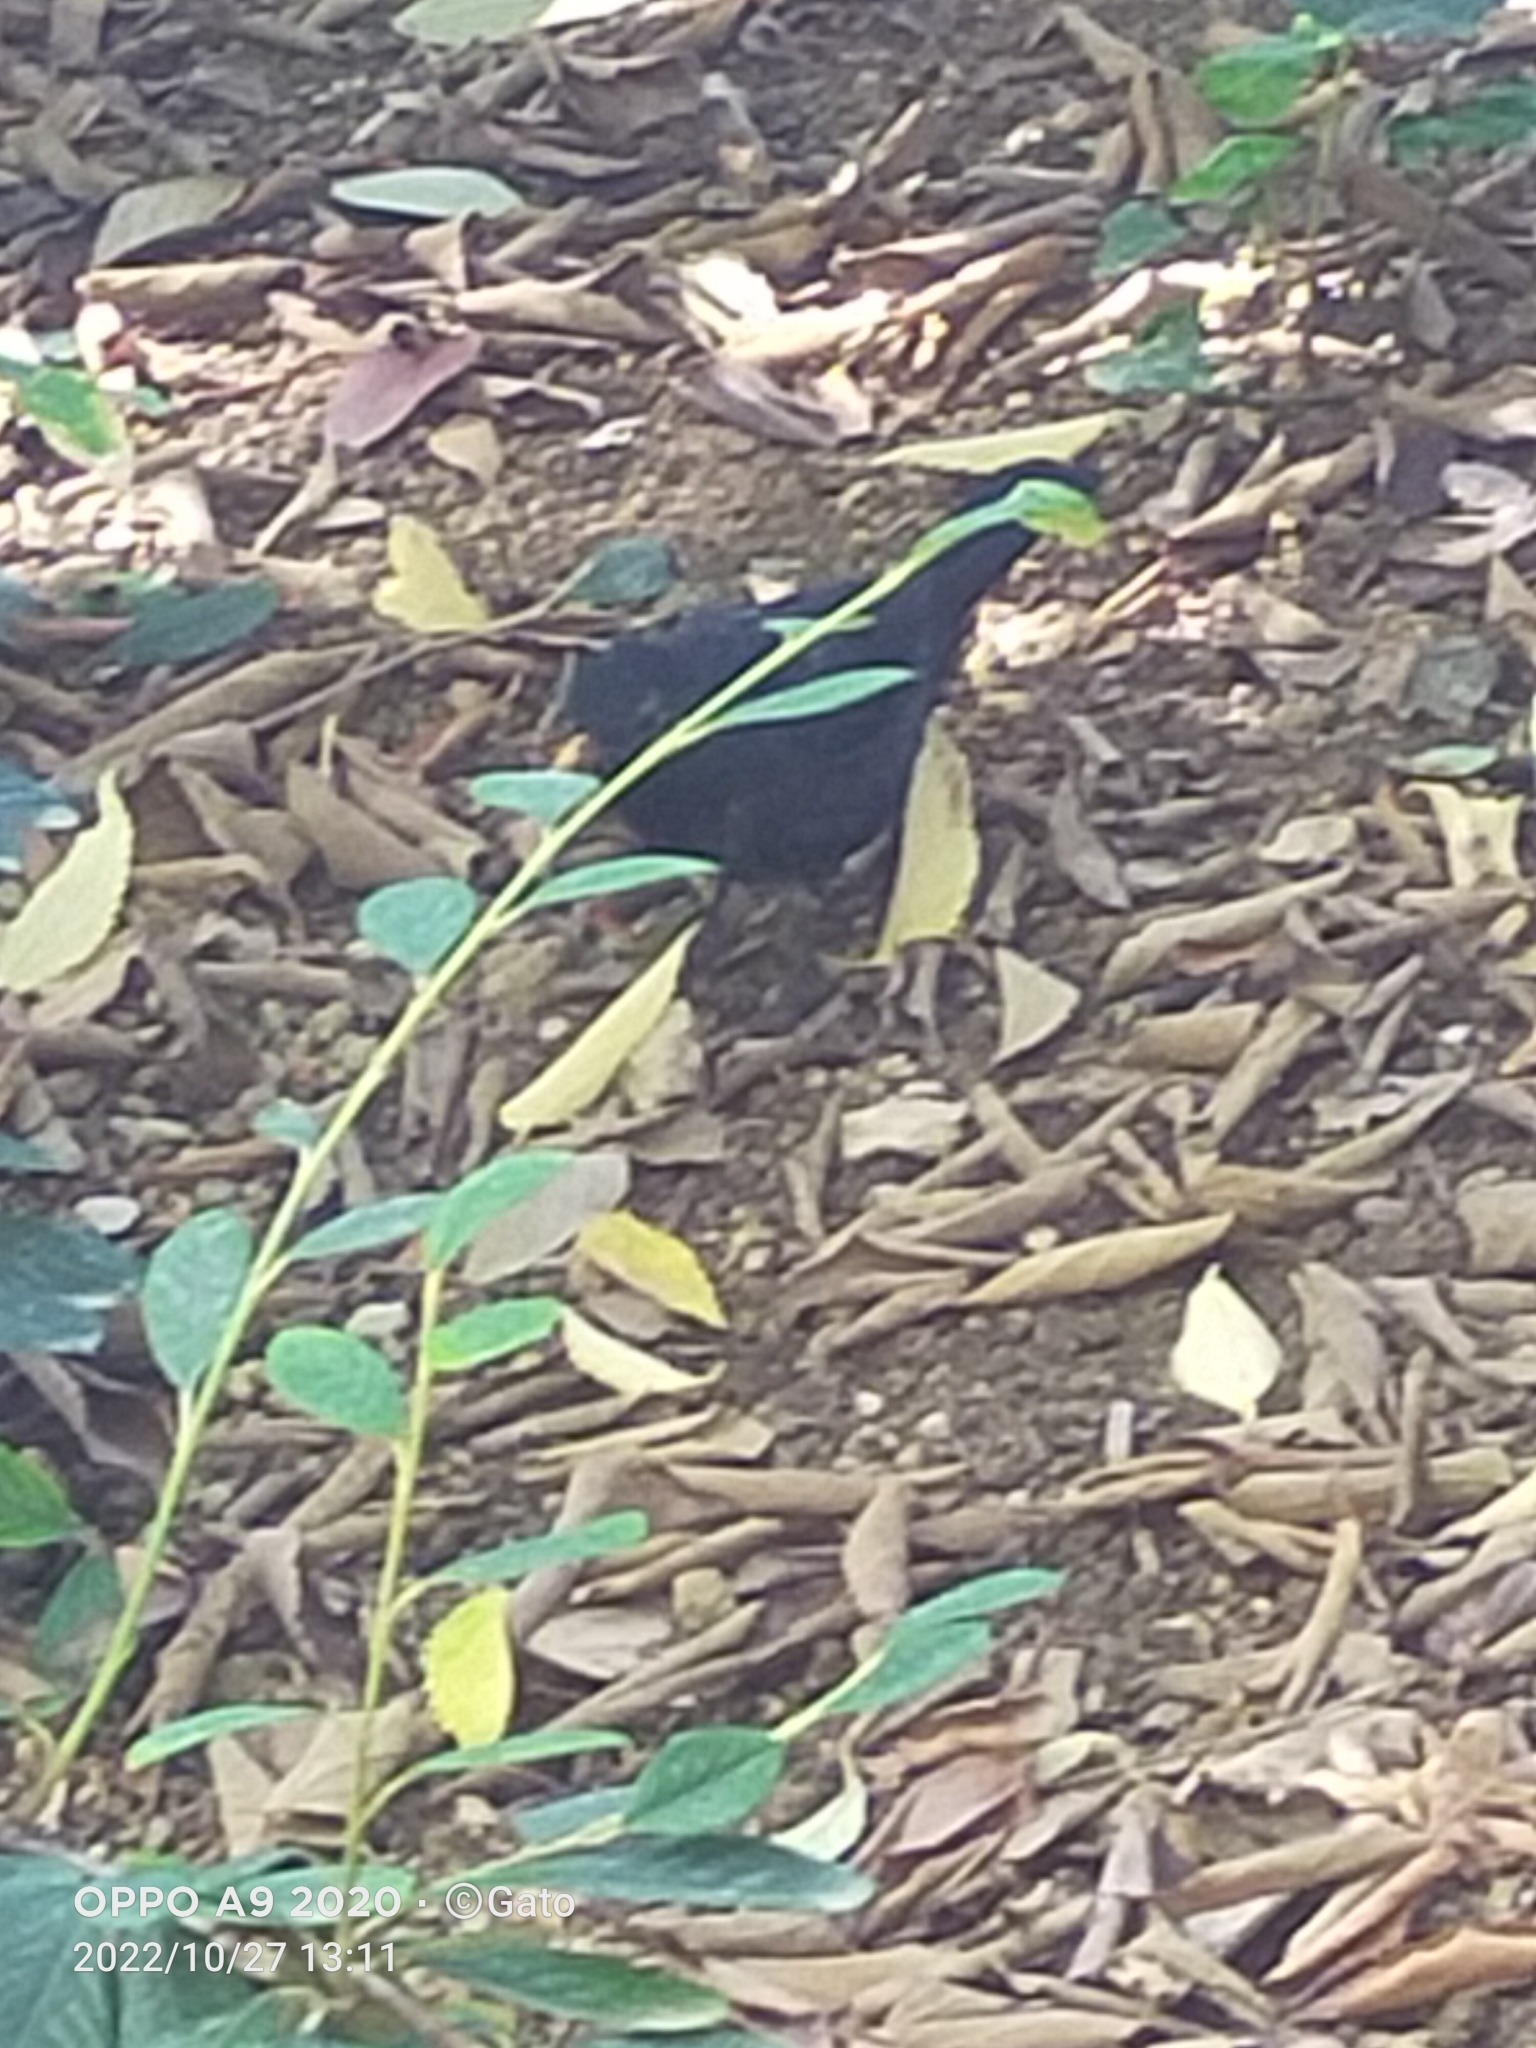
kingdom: Animalia
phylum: Chordata
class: Aves
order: Passeriformes
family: Turdidae
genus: Turdus
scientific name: Turdus merula
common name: Common blackbird
